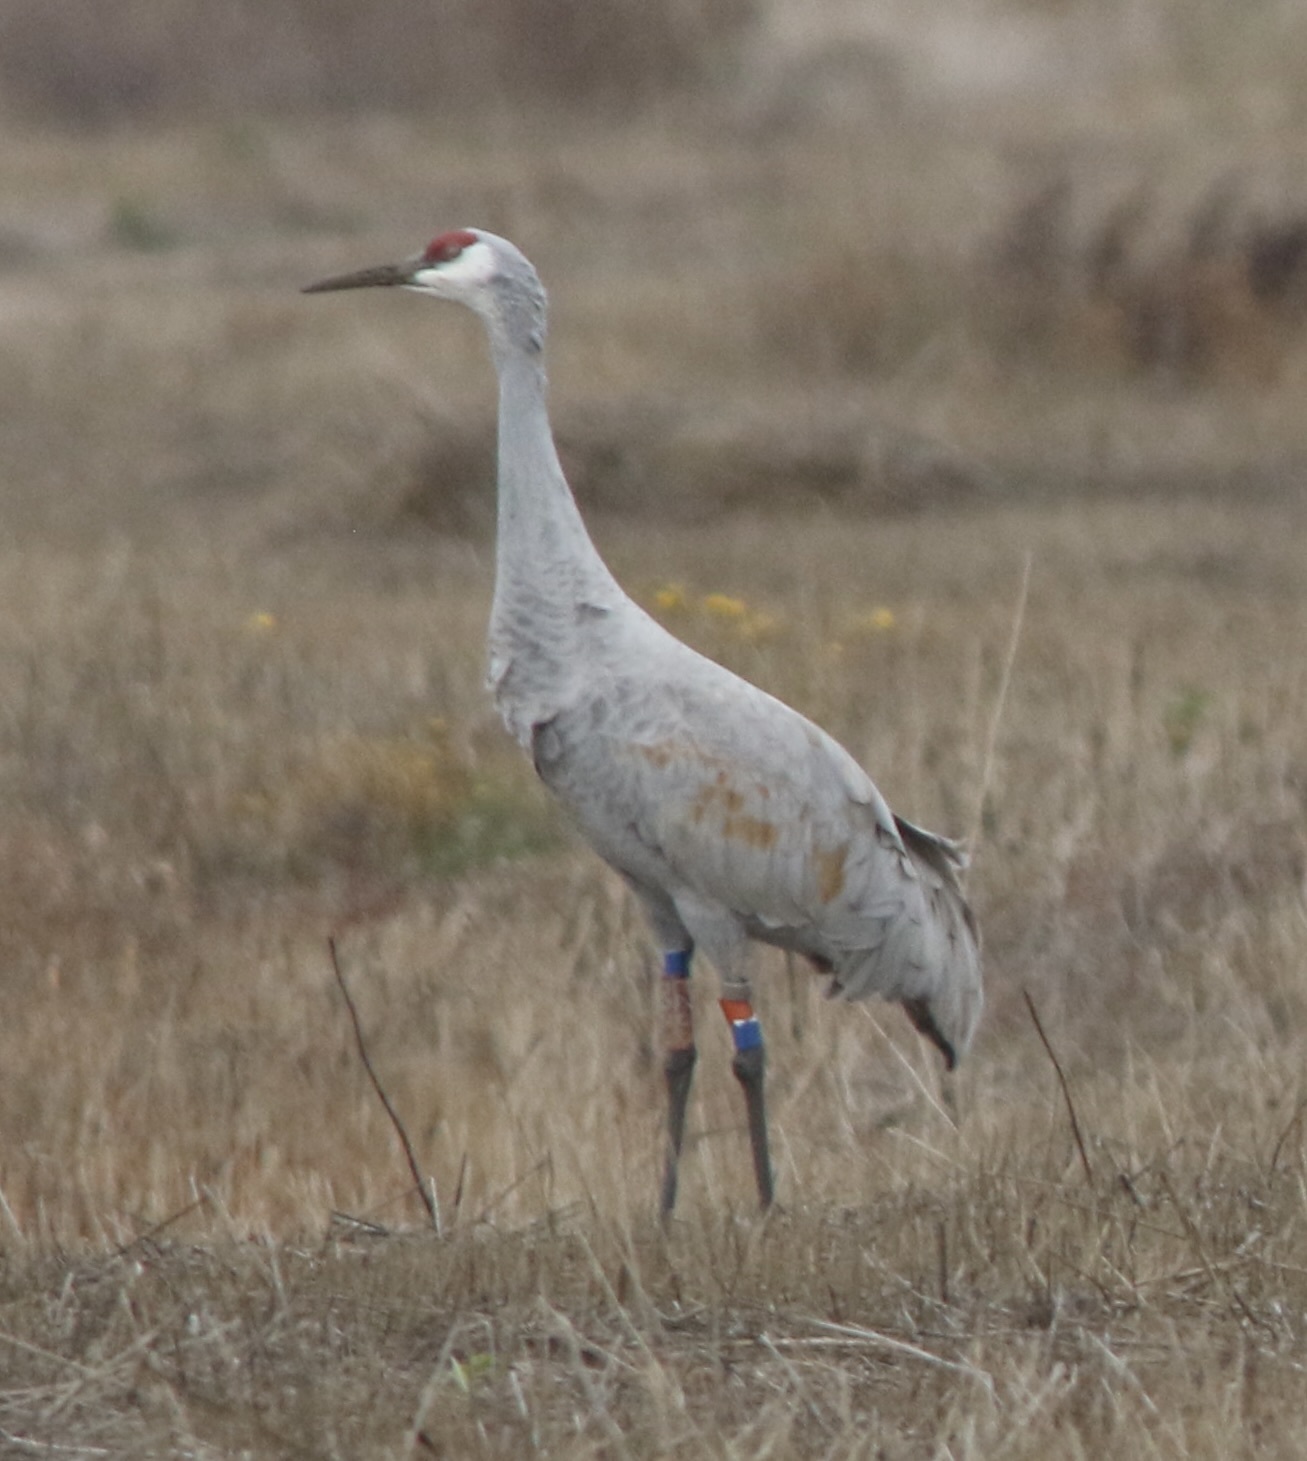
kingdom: Animalia
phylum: Chordata
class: Aves
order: Gruiformes
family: Gruidae
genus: Grus
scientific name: Grus canadensis
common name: Sandhill crane
